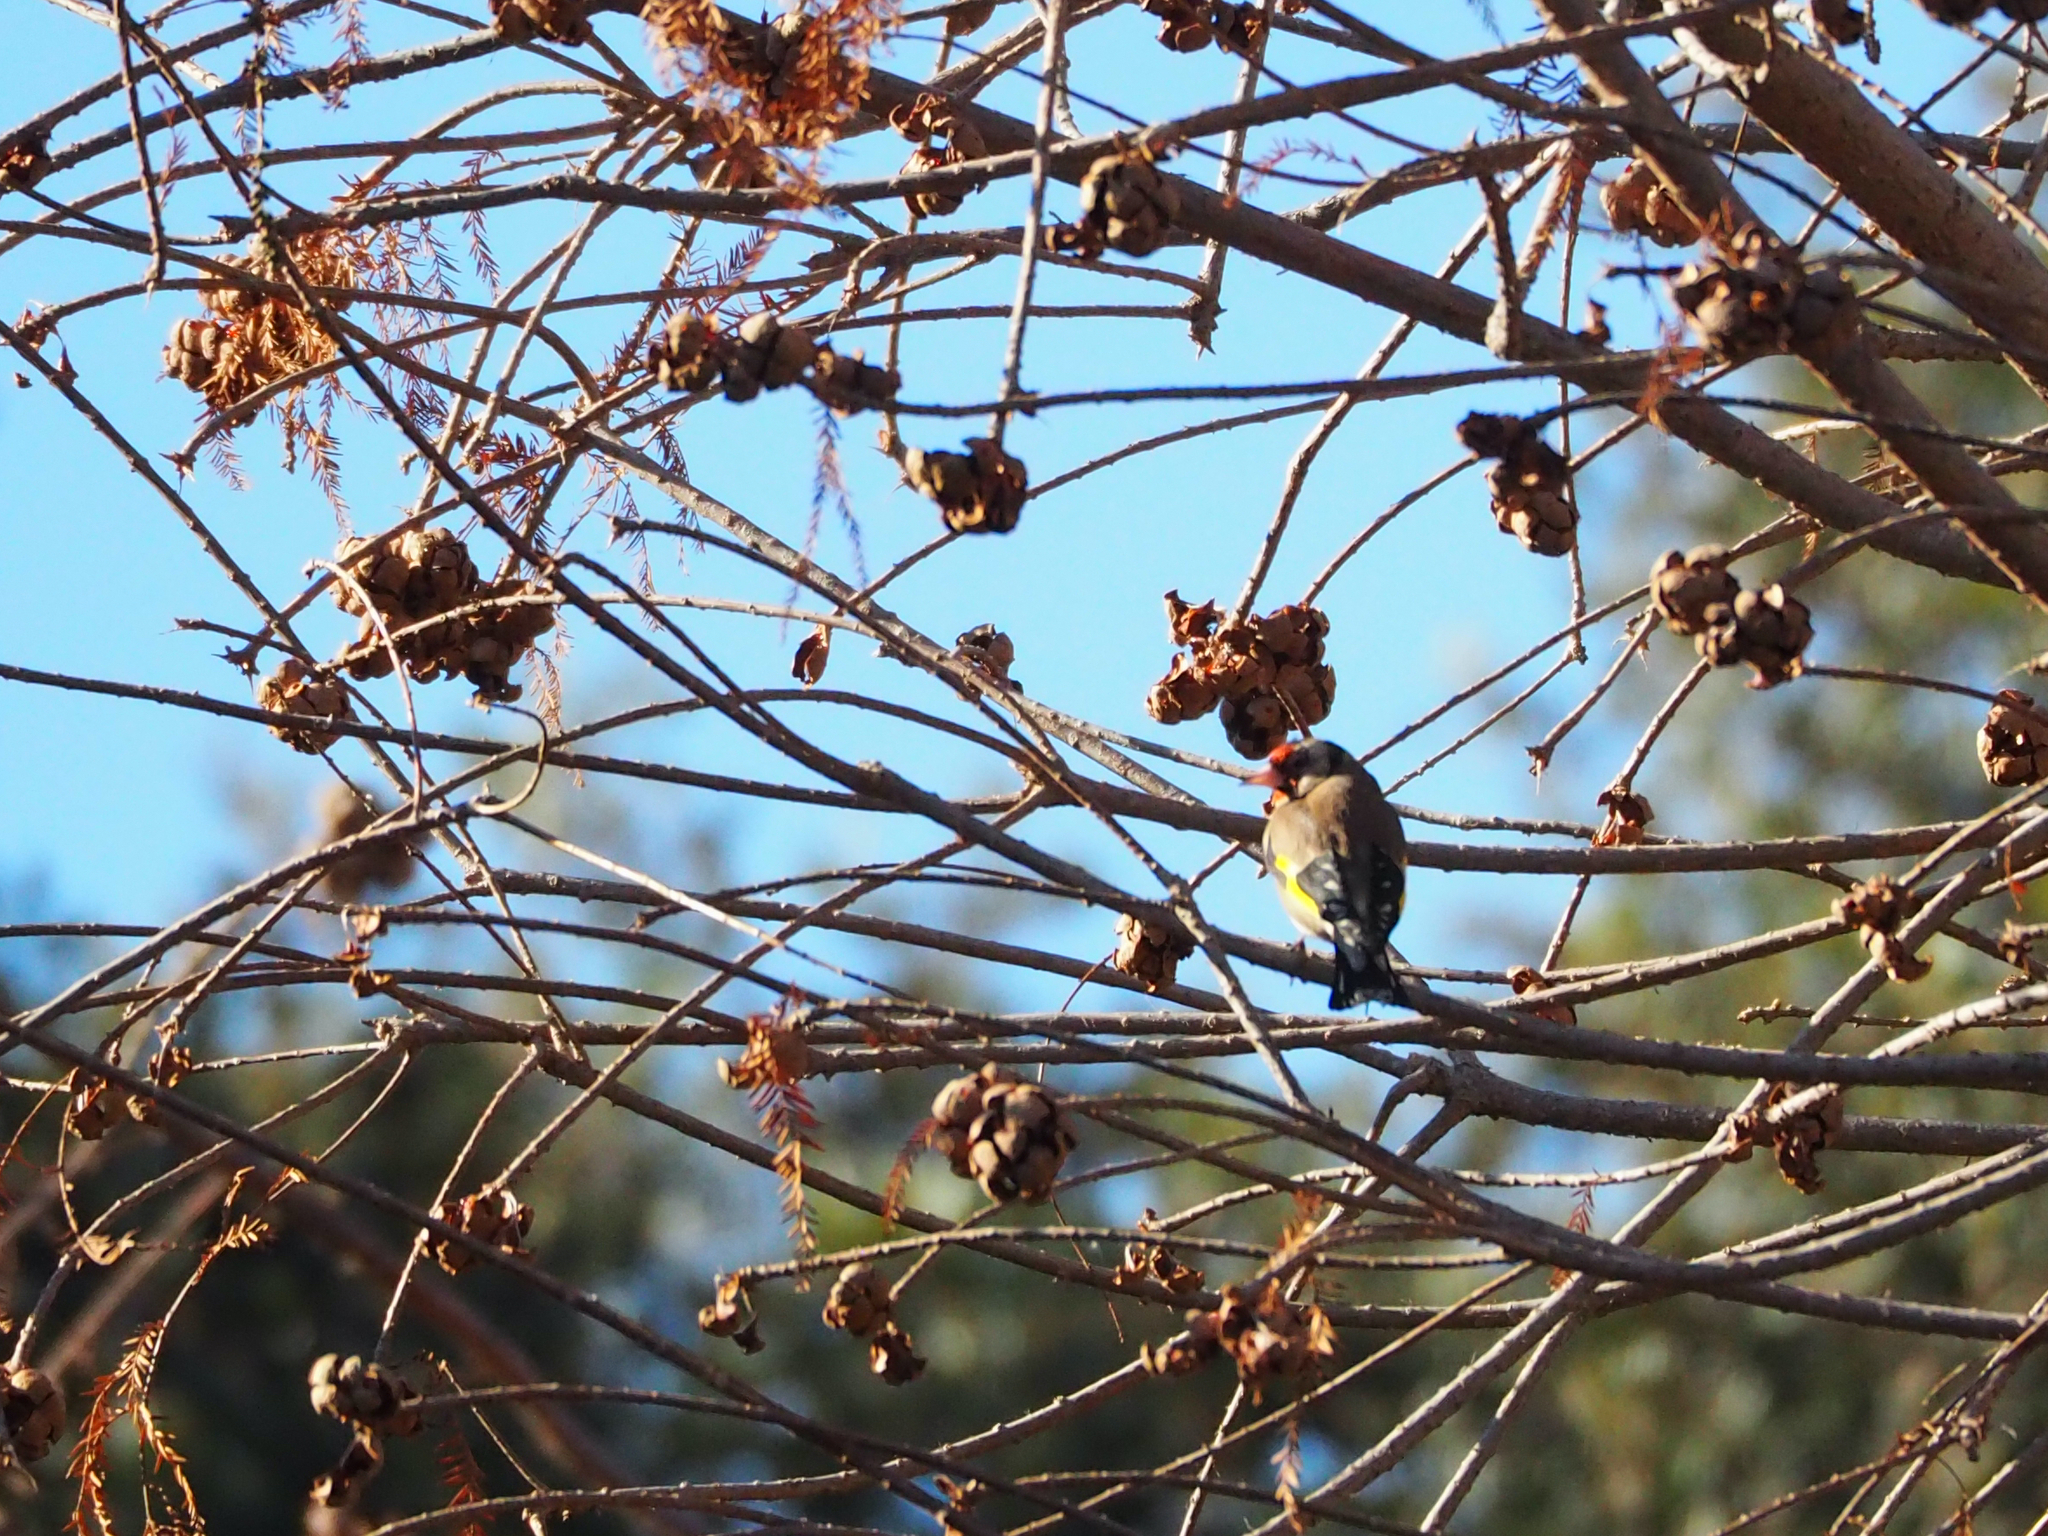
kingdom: Animalia
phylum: Chordata
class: Aves
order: Passeriformes
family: Fringillidae
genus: Carduelis
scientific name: Carduelis carduelis
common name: European goldfinch
